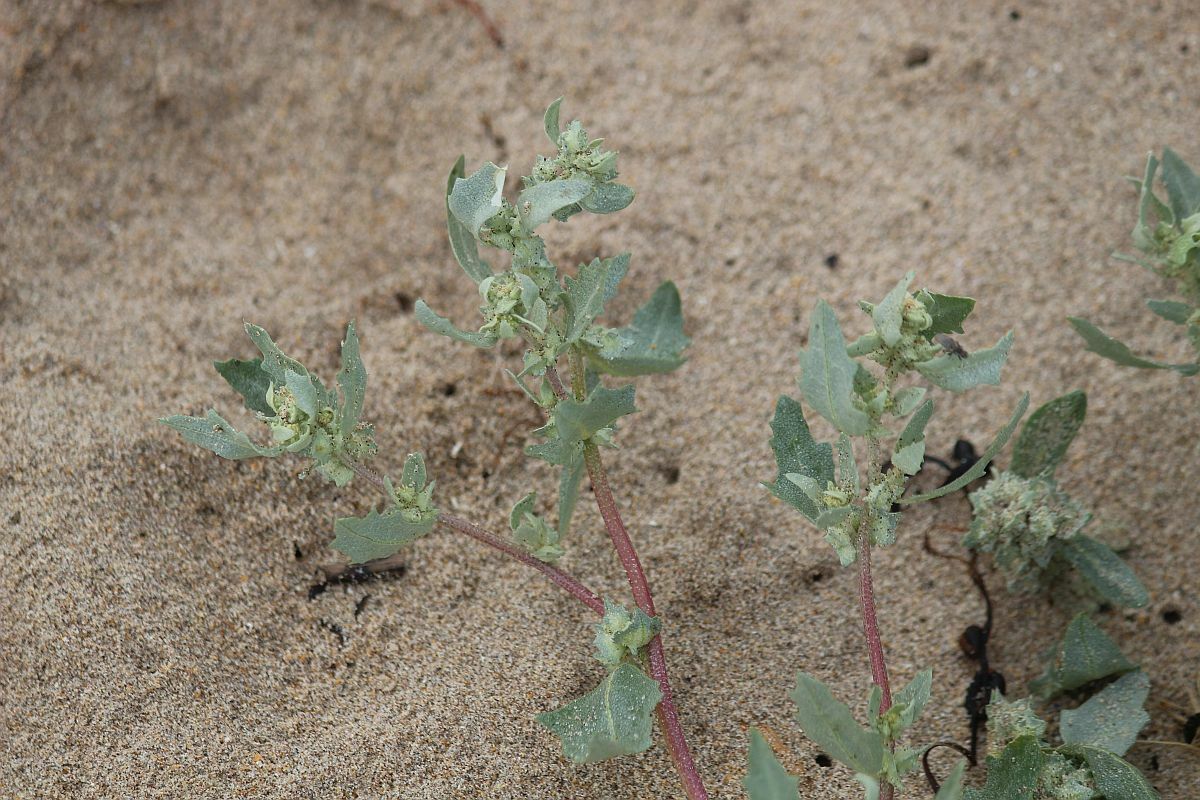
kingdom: Plantae
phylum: Tracheophyta
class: Magnoliopsida
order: Caryophyllales
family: Amaranthaceae
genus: Atriplex
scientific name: Atriplex laciniata
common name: Frosted orache
